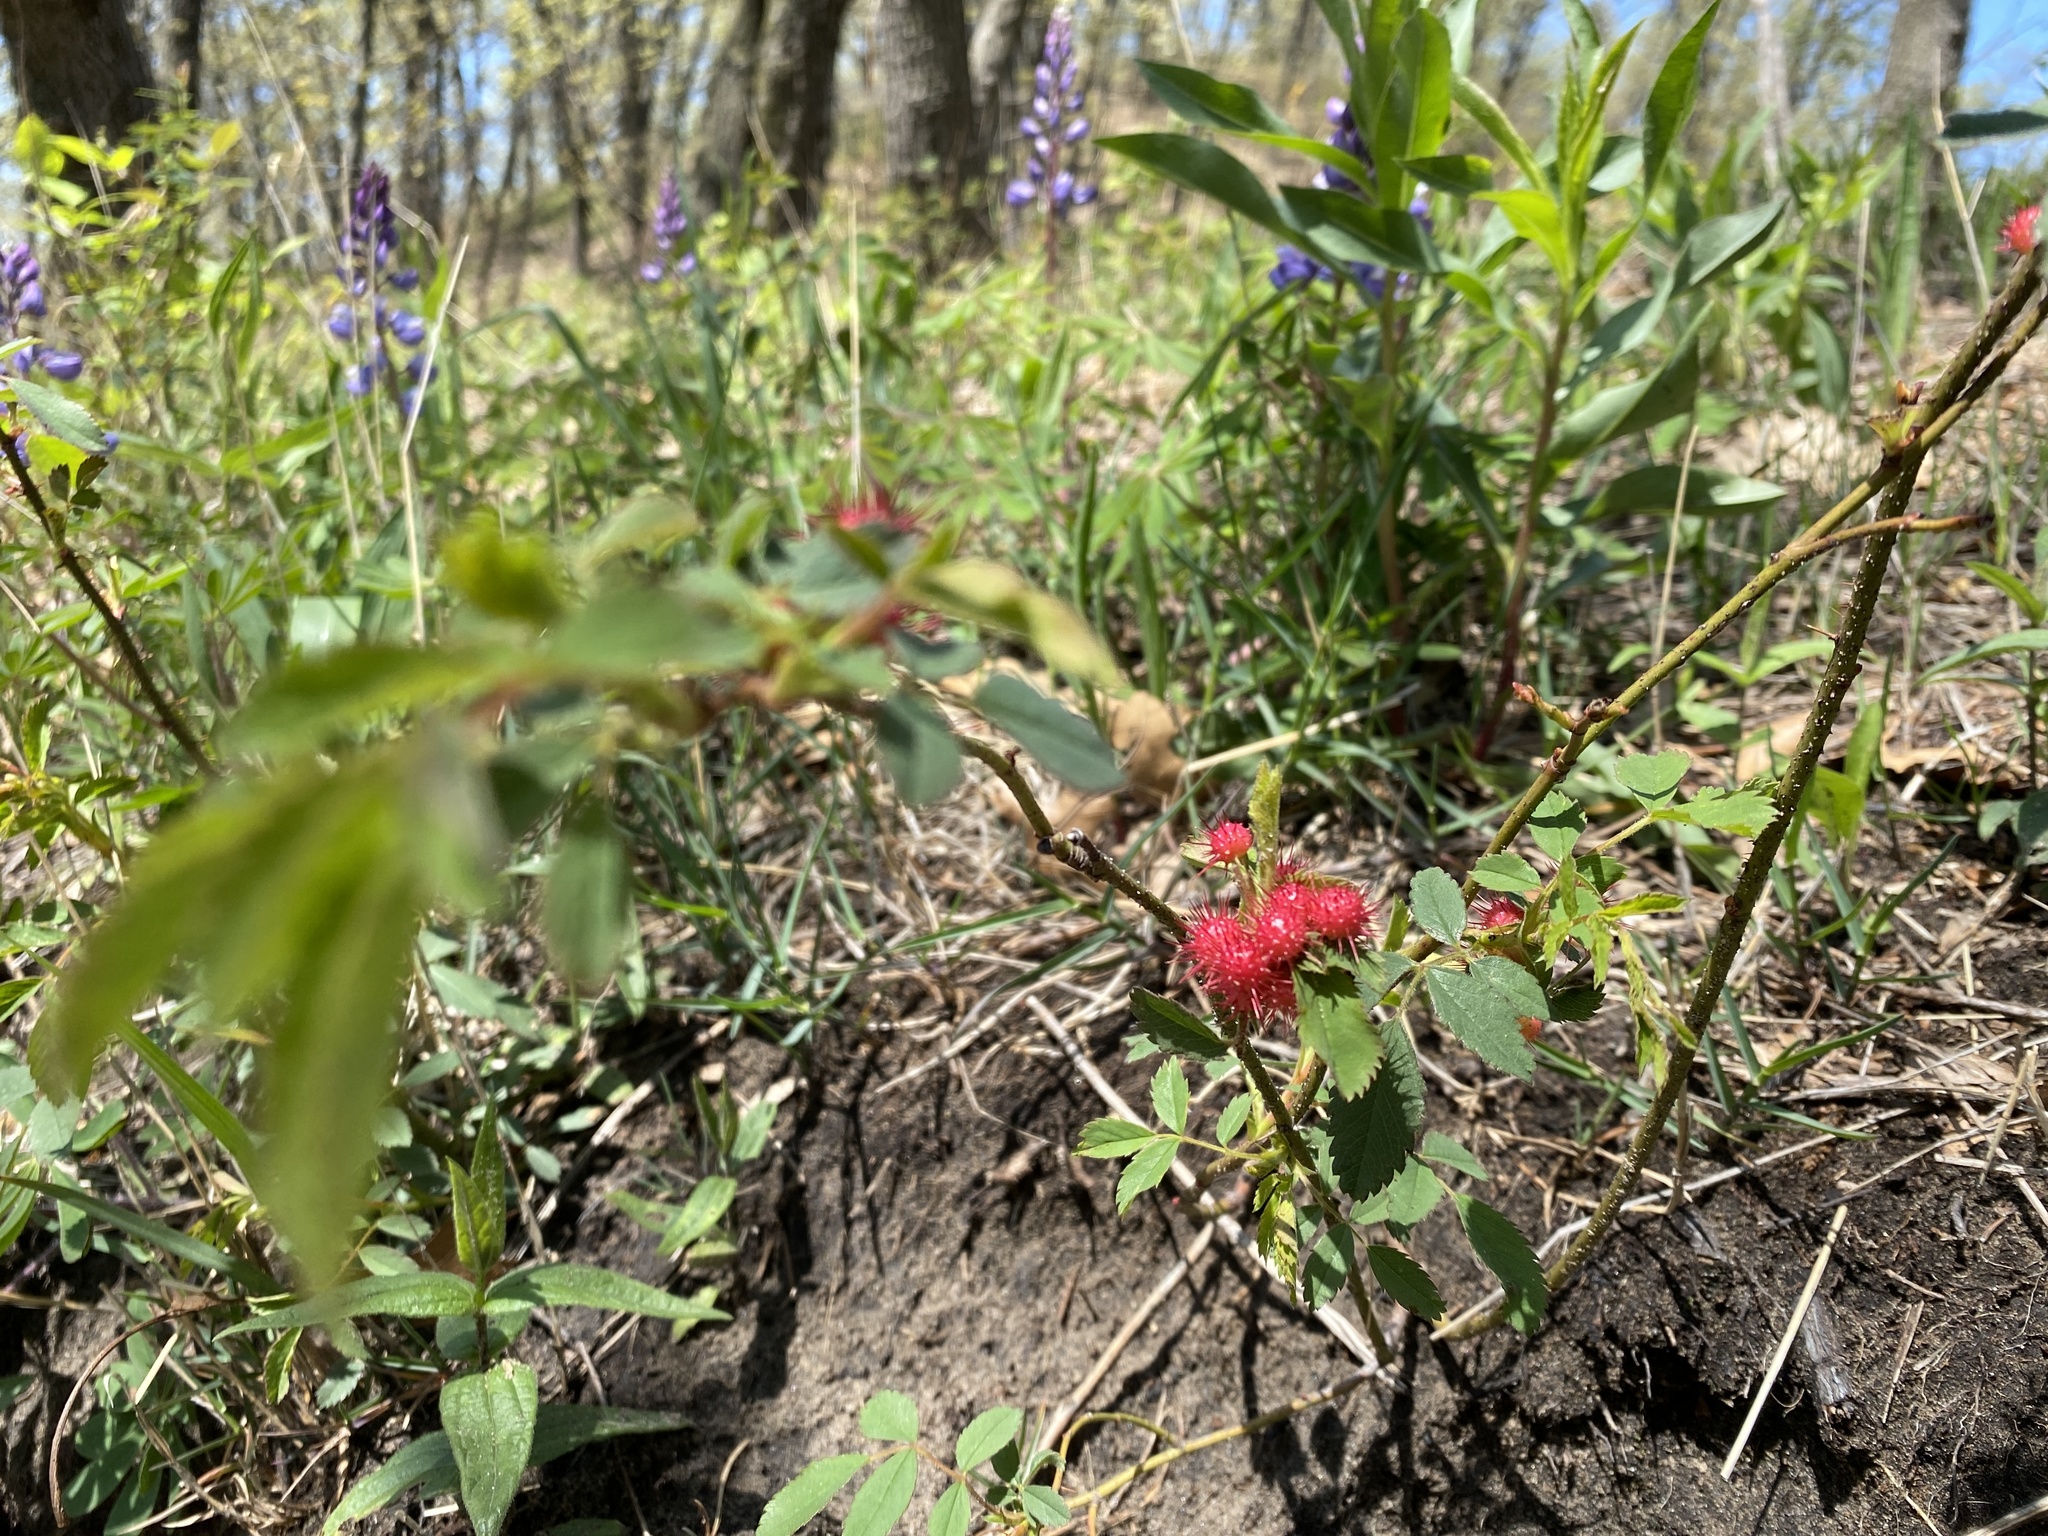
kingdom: Animalia
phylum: Arthropoda
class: Insecta
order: Hymenoptera
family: Cynipidae
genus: Diplolepis
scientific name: Diplolepis polita
